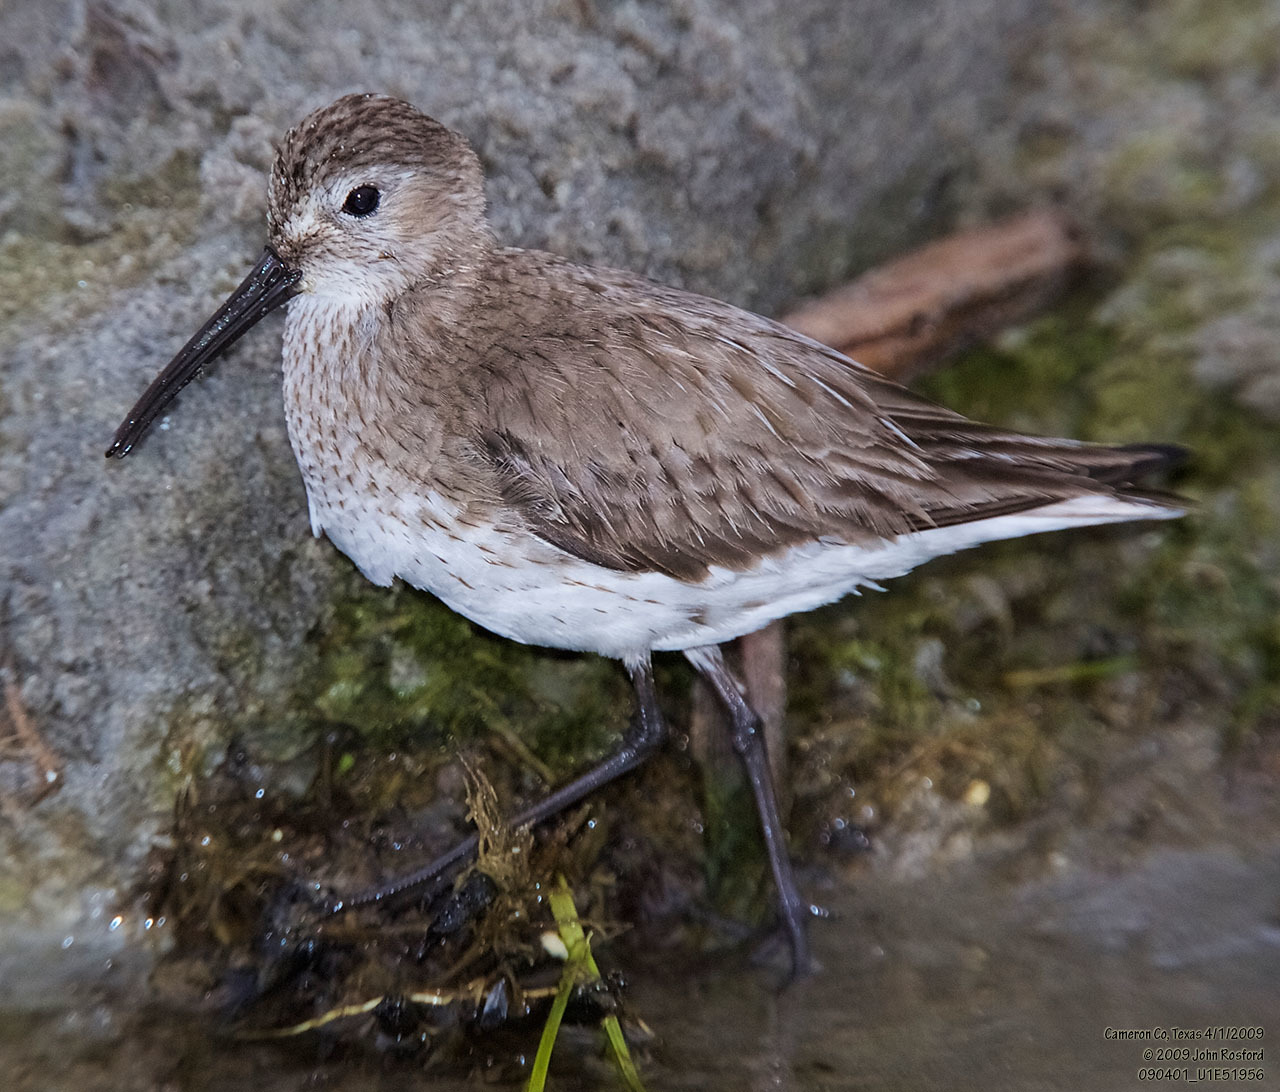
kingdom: Animalia
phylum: Chordata
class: Aves
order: Charadriiformes
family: Scolopacidae
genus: Calidris
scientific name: Calidris alpina
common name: Dunlin
